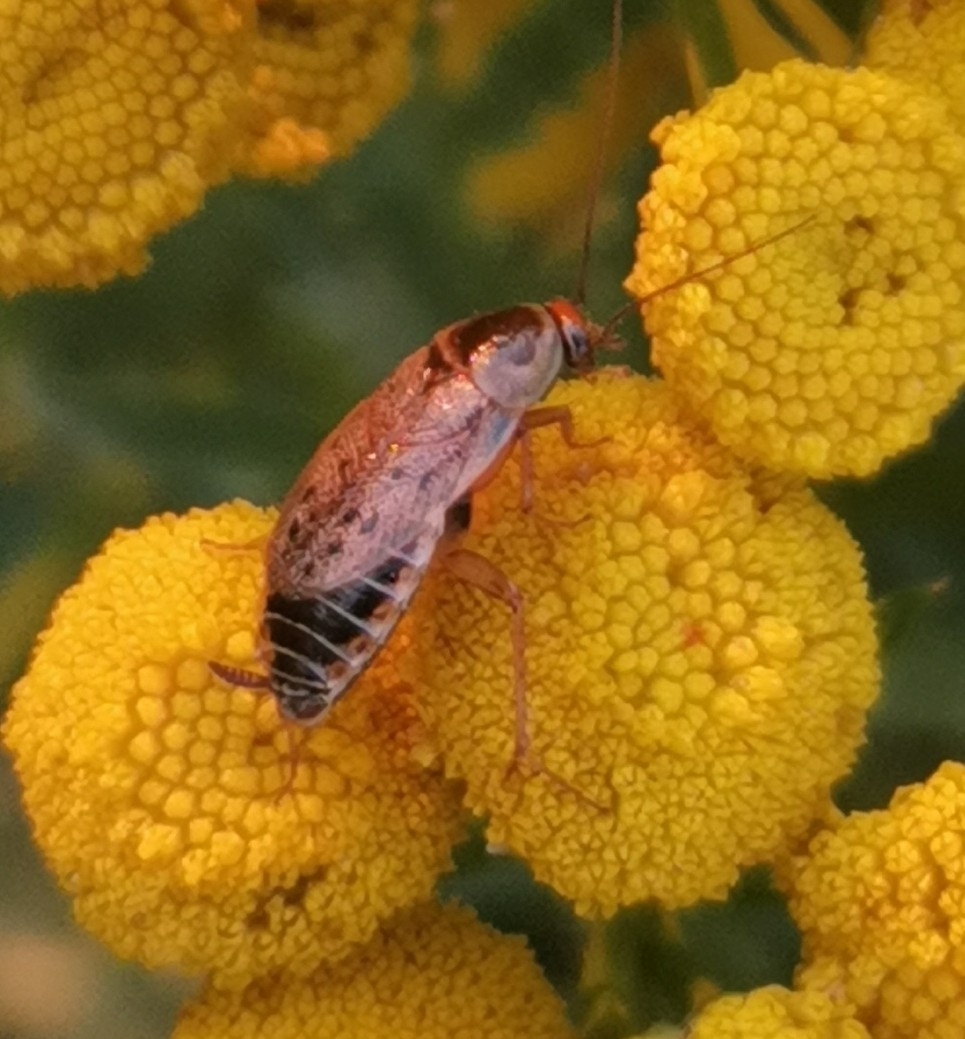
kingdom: Animalia
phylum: Arthropoda
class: Insecta
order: Blattodea
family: Ectobiidae
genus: Ectobius
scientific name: Ectobius lapponicus
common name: Dusky cockroach
